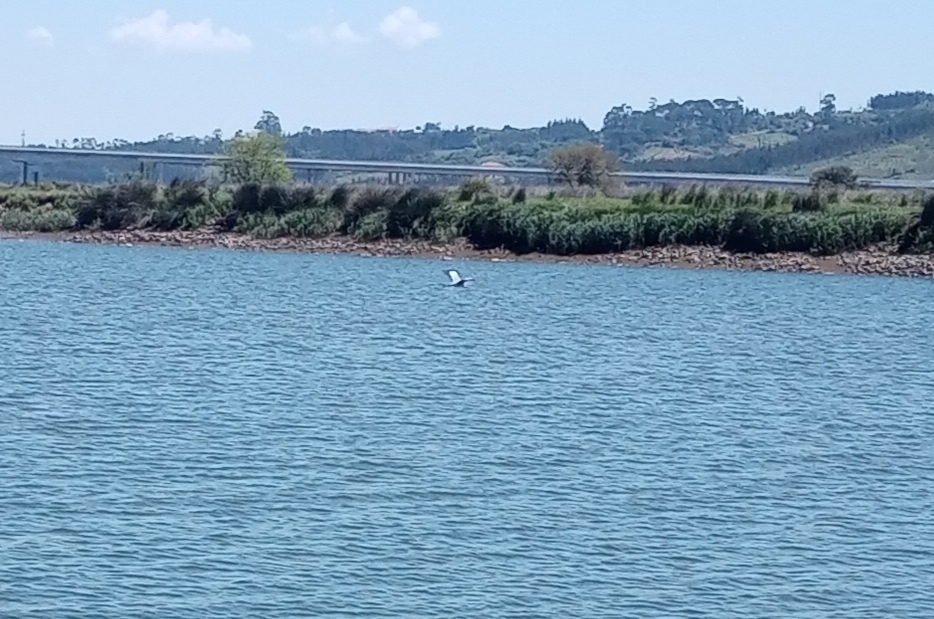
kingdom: Animalia
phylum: Chordata
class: Aves
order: Ciconiiformes
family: Ciconiidae
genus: Ciconia
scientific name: Ciconia ciconia
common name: White stork
